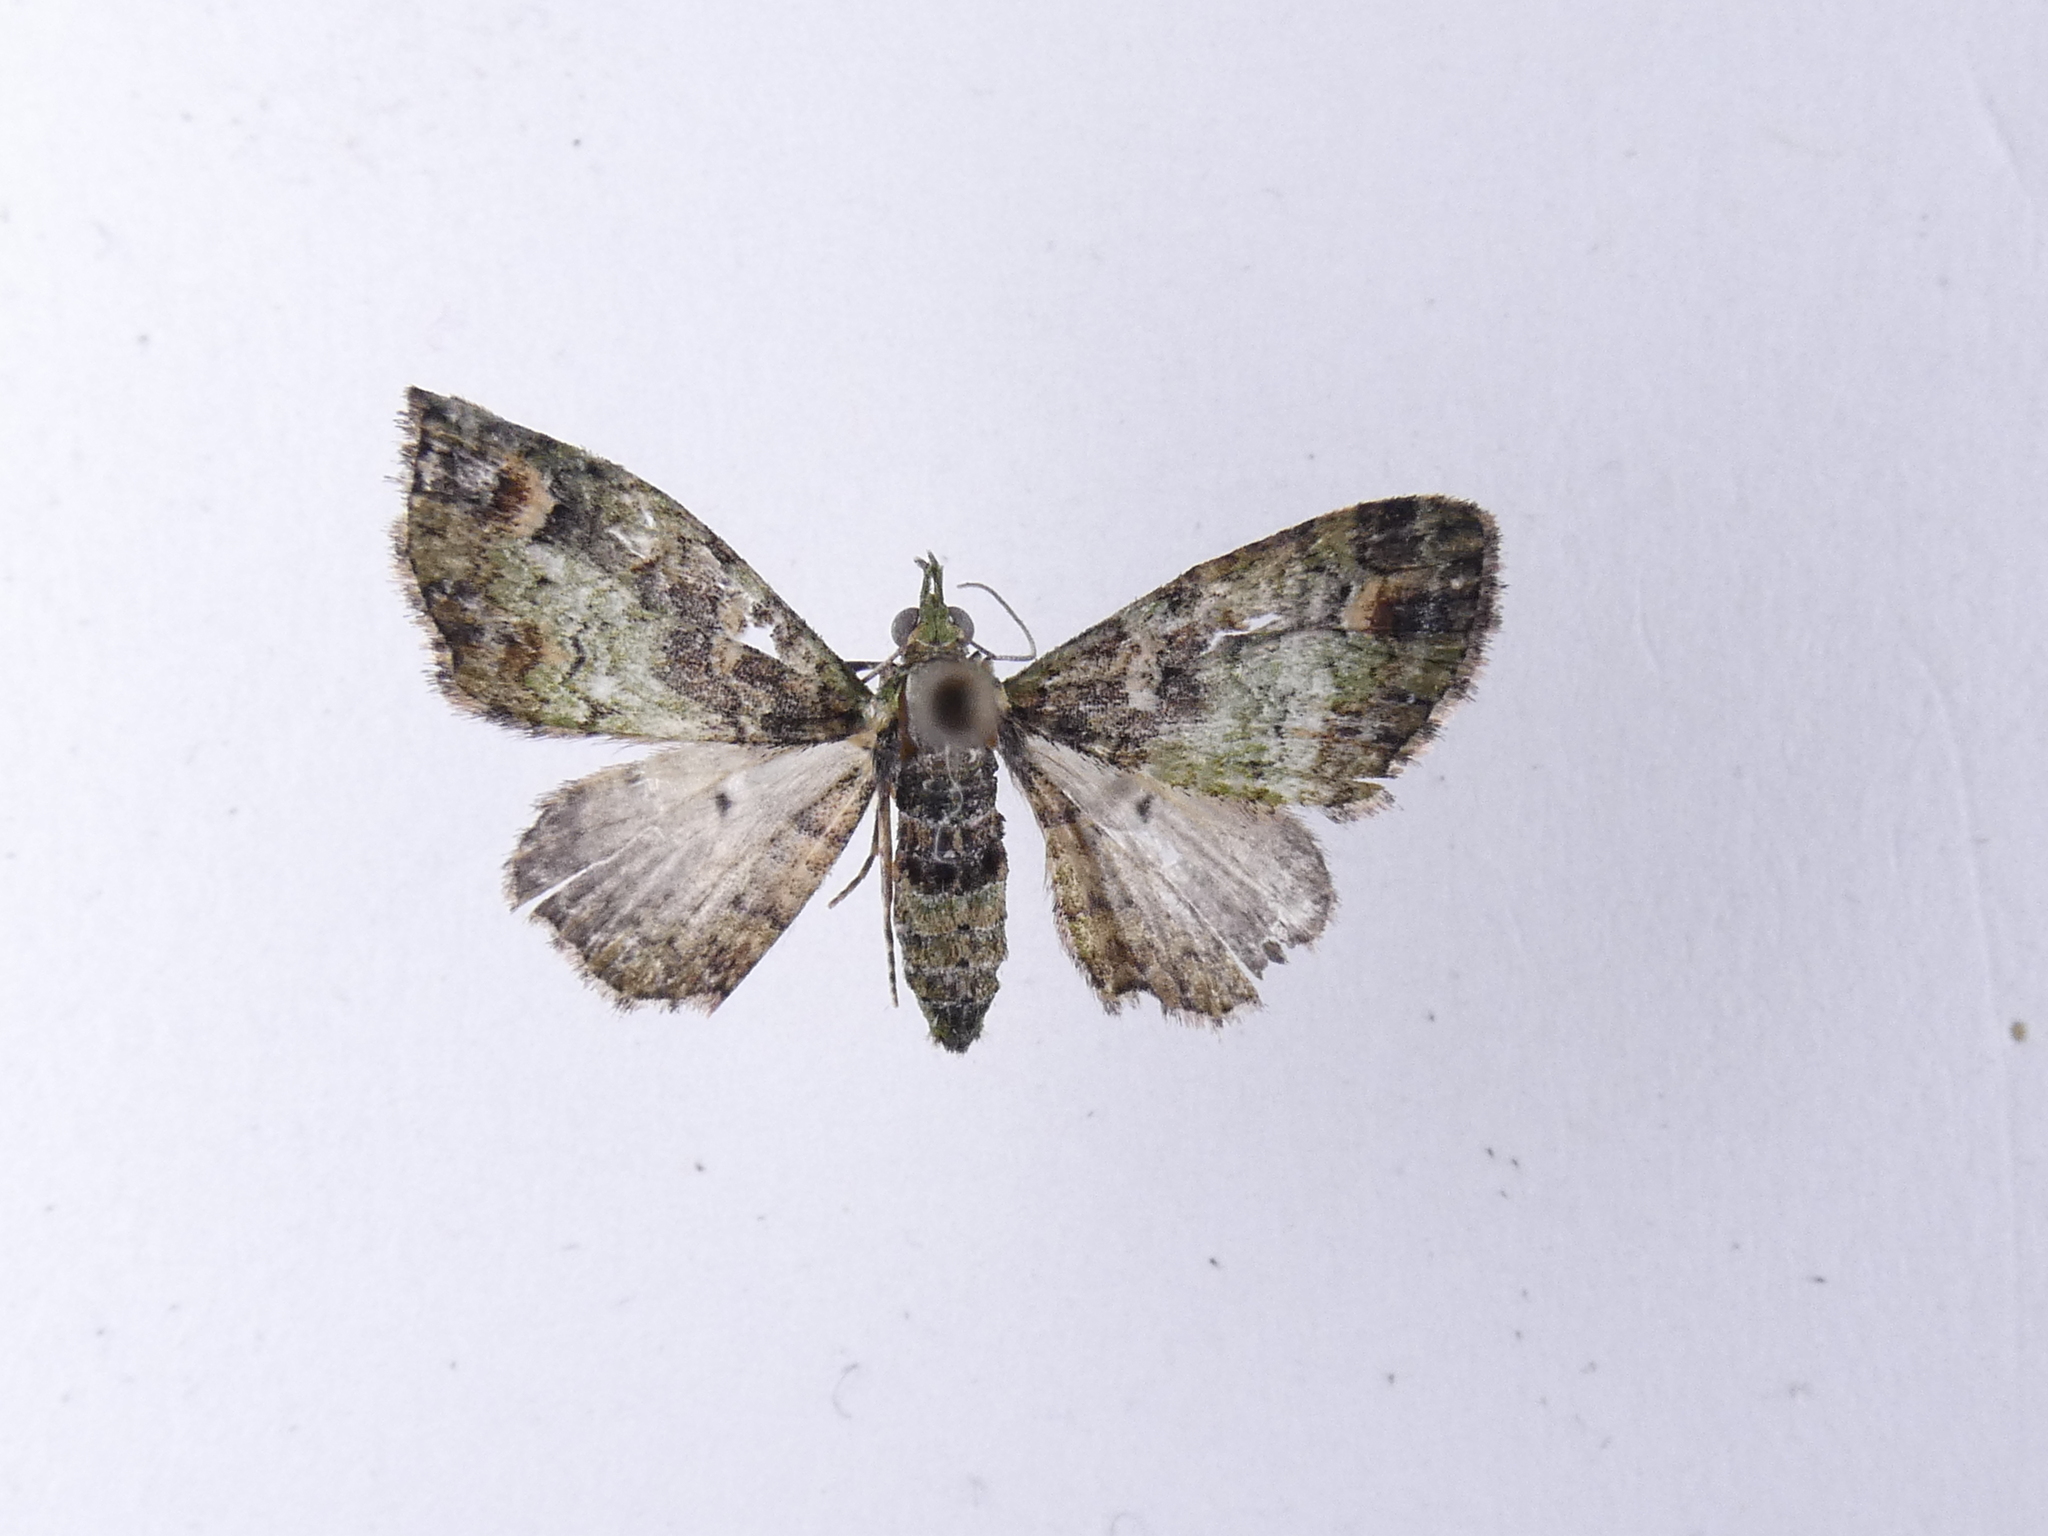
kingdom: Animalia
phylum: Arthropoda
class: Insecta
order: Lepidoptera
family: Geometridae
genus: Idaea
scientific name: Idaea mutanda
